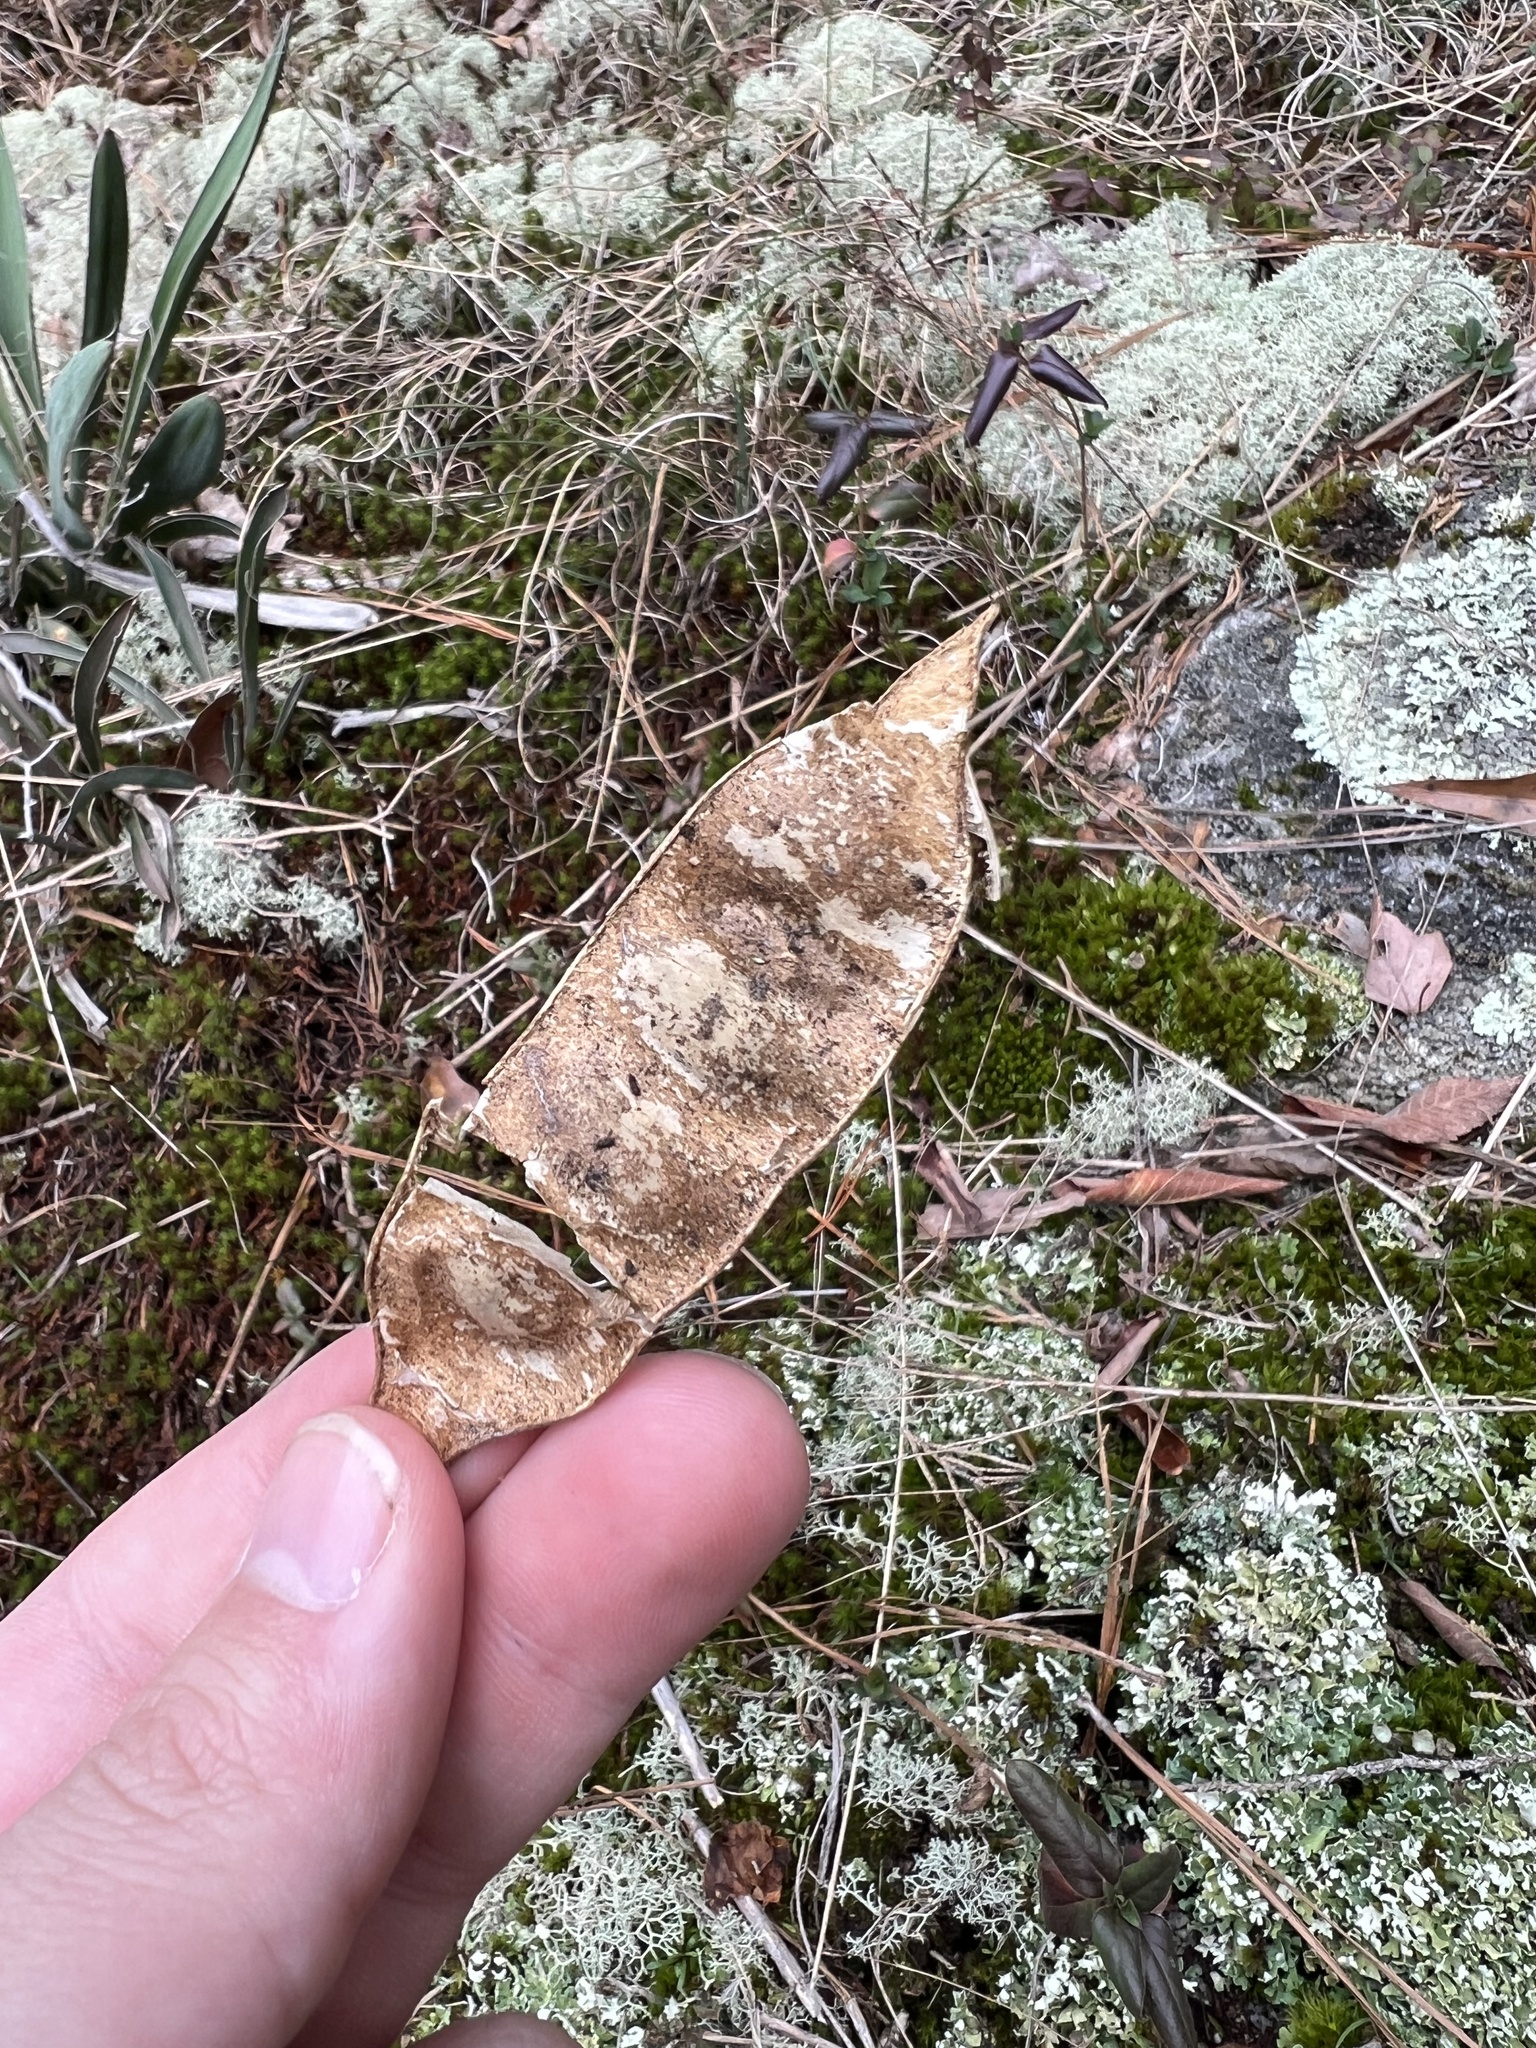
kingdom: Plantae
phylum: Tracheophyta
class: Magnoliopsida
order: Fabales
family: Fabaceae
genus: Albizia
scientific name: Albizia julibrissin
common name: Silktree
